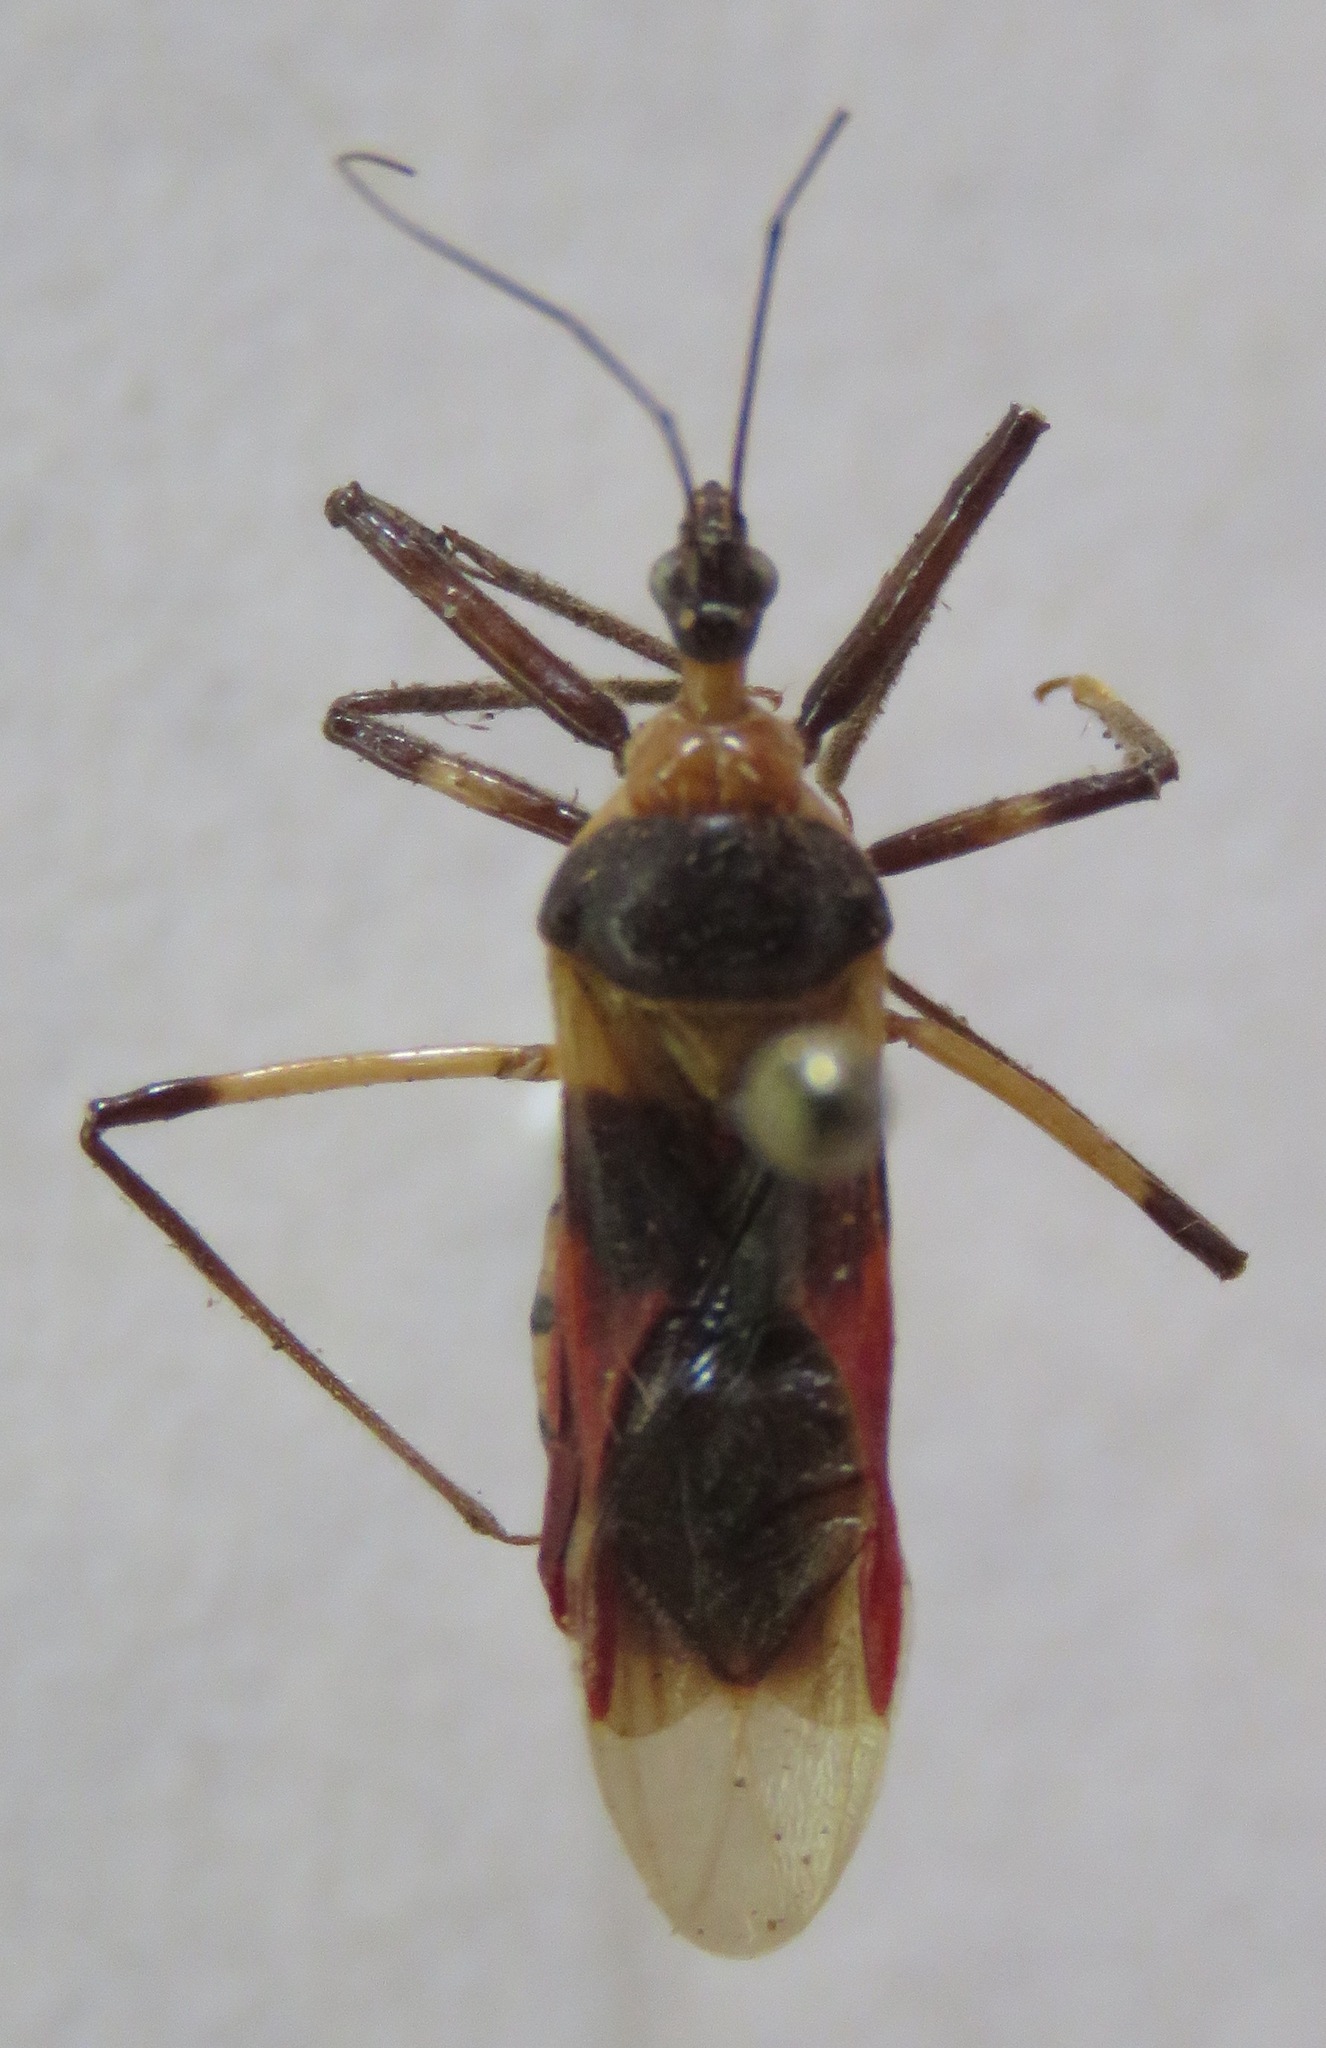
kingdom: Animalia
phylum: Arthropoda
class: Insecta
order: Hemiptera
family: Reduviidae
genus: Castolus
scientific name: Castolus tricolor
